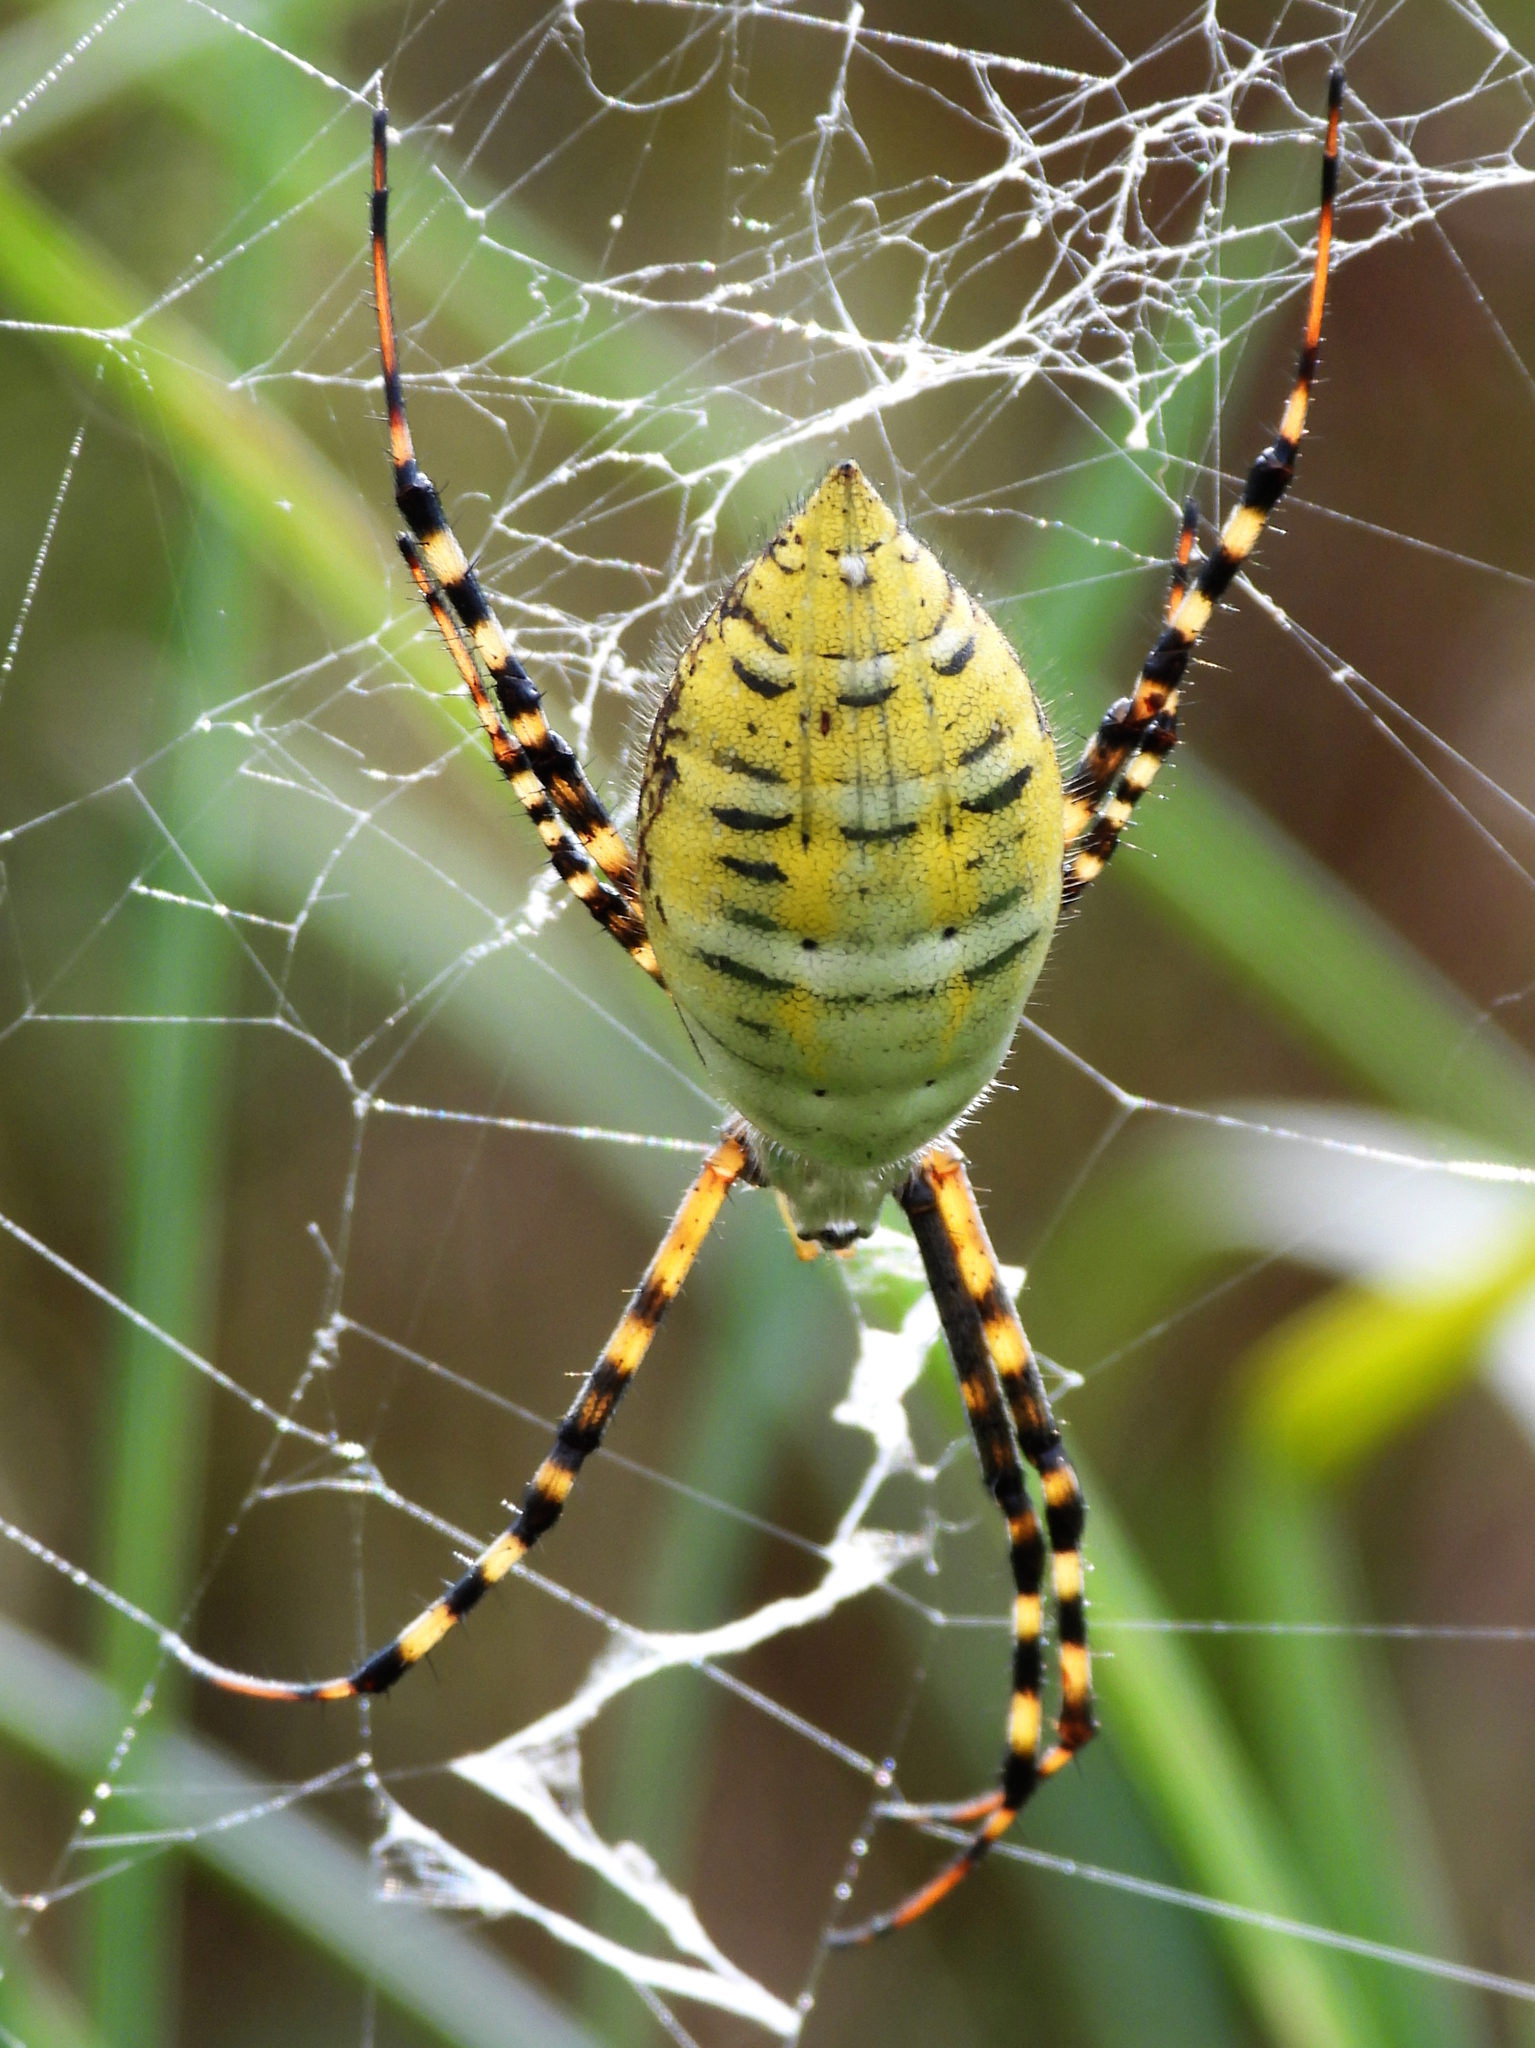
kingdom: Animalia
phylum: Arthropoda
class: Arachnida
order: Araneae
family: Araneidae
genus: Argiope
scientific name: Argiope trifasciata
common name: Banded garden spider
